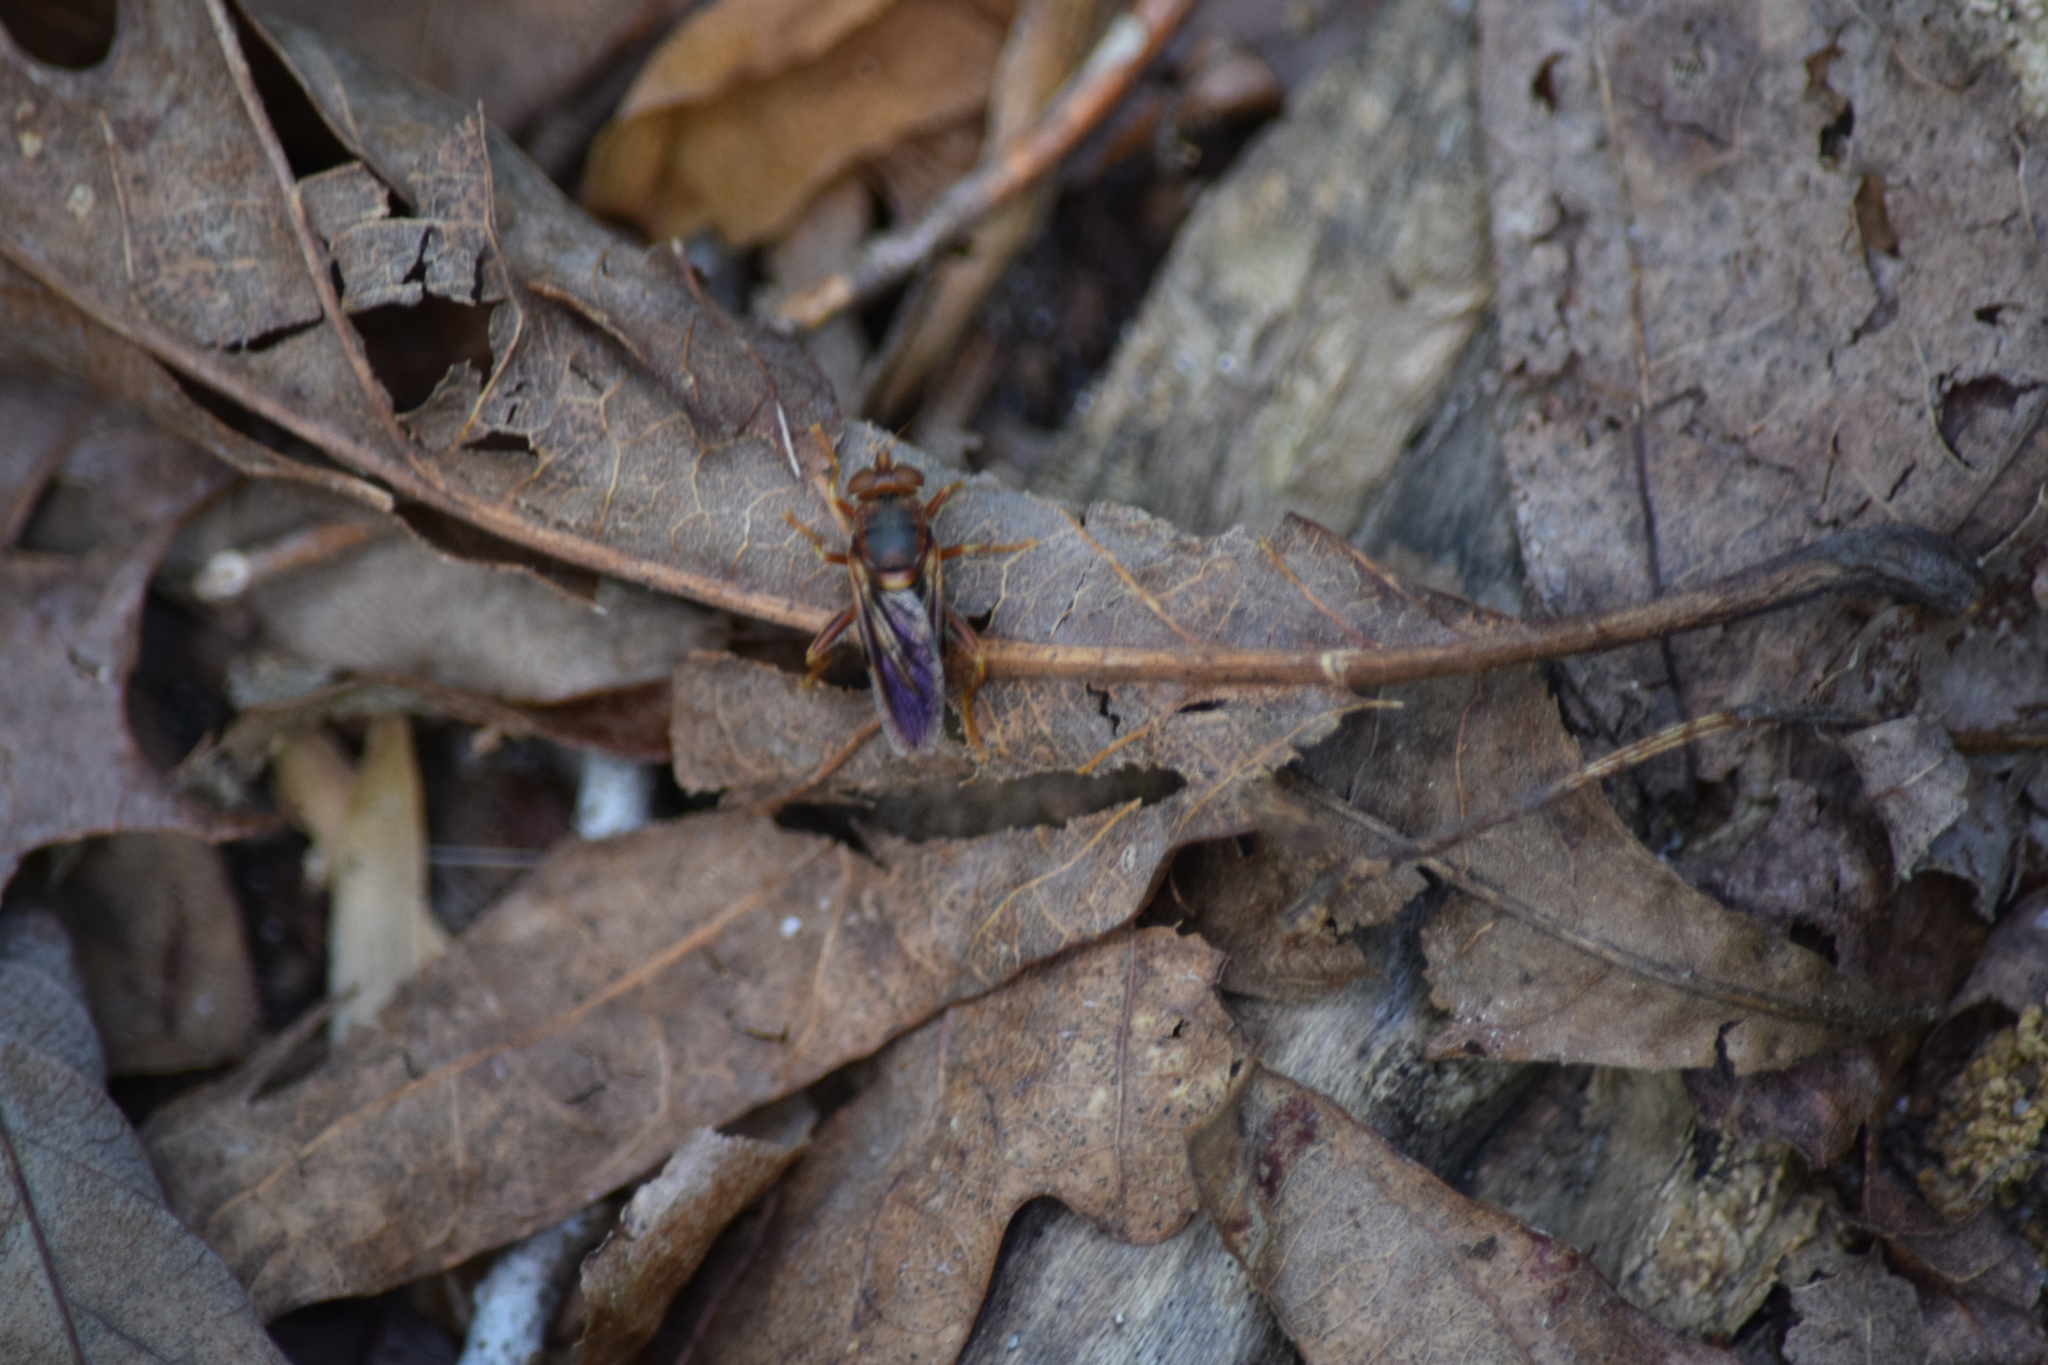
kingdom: Animalia
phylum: Arthropoda
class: Insecta
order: Diptera
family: Syrphidae
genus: Teuchocnemis
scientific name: Teuchocnemis bacuntius
